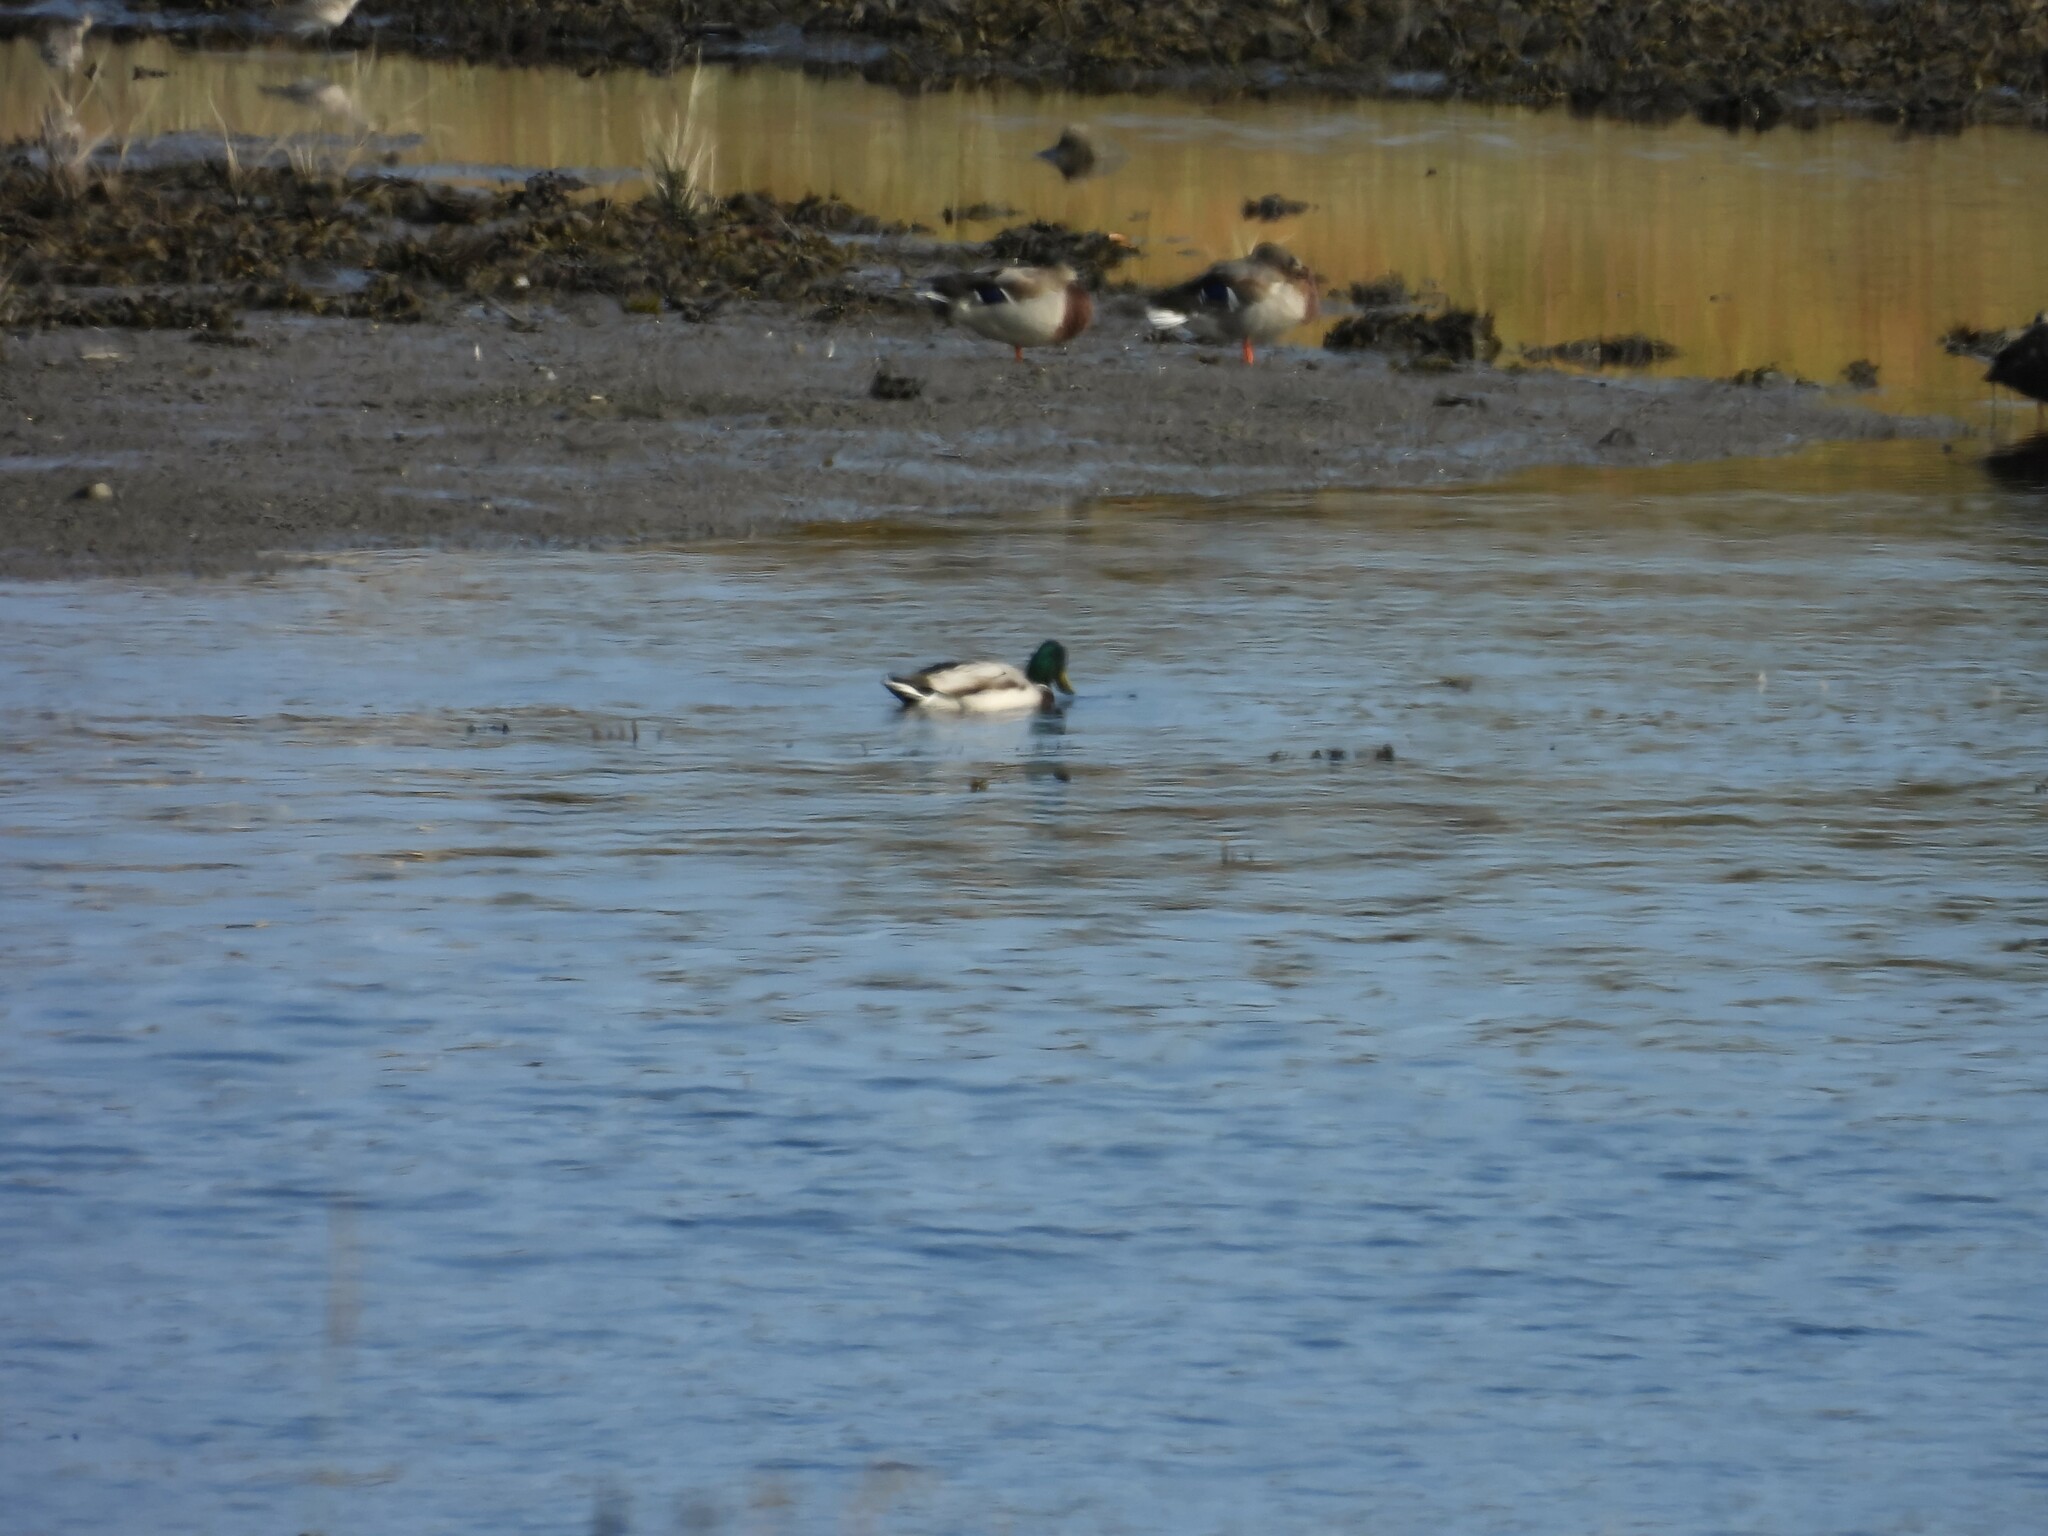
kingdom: Animalia
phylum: Chordata
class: Aves
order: Anseriformes
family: Anatidae
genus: Anas
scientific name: Anas platyrhynchos
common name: Mallard
